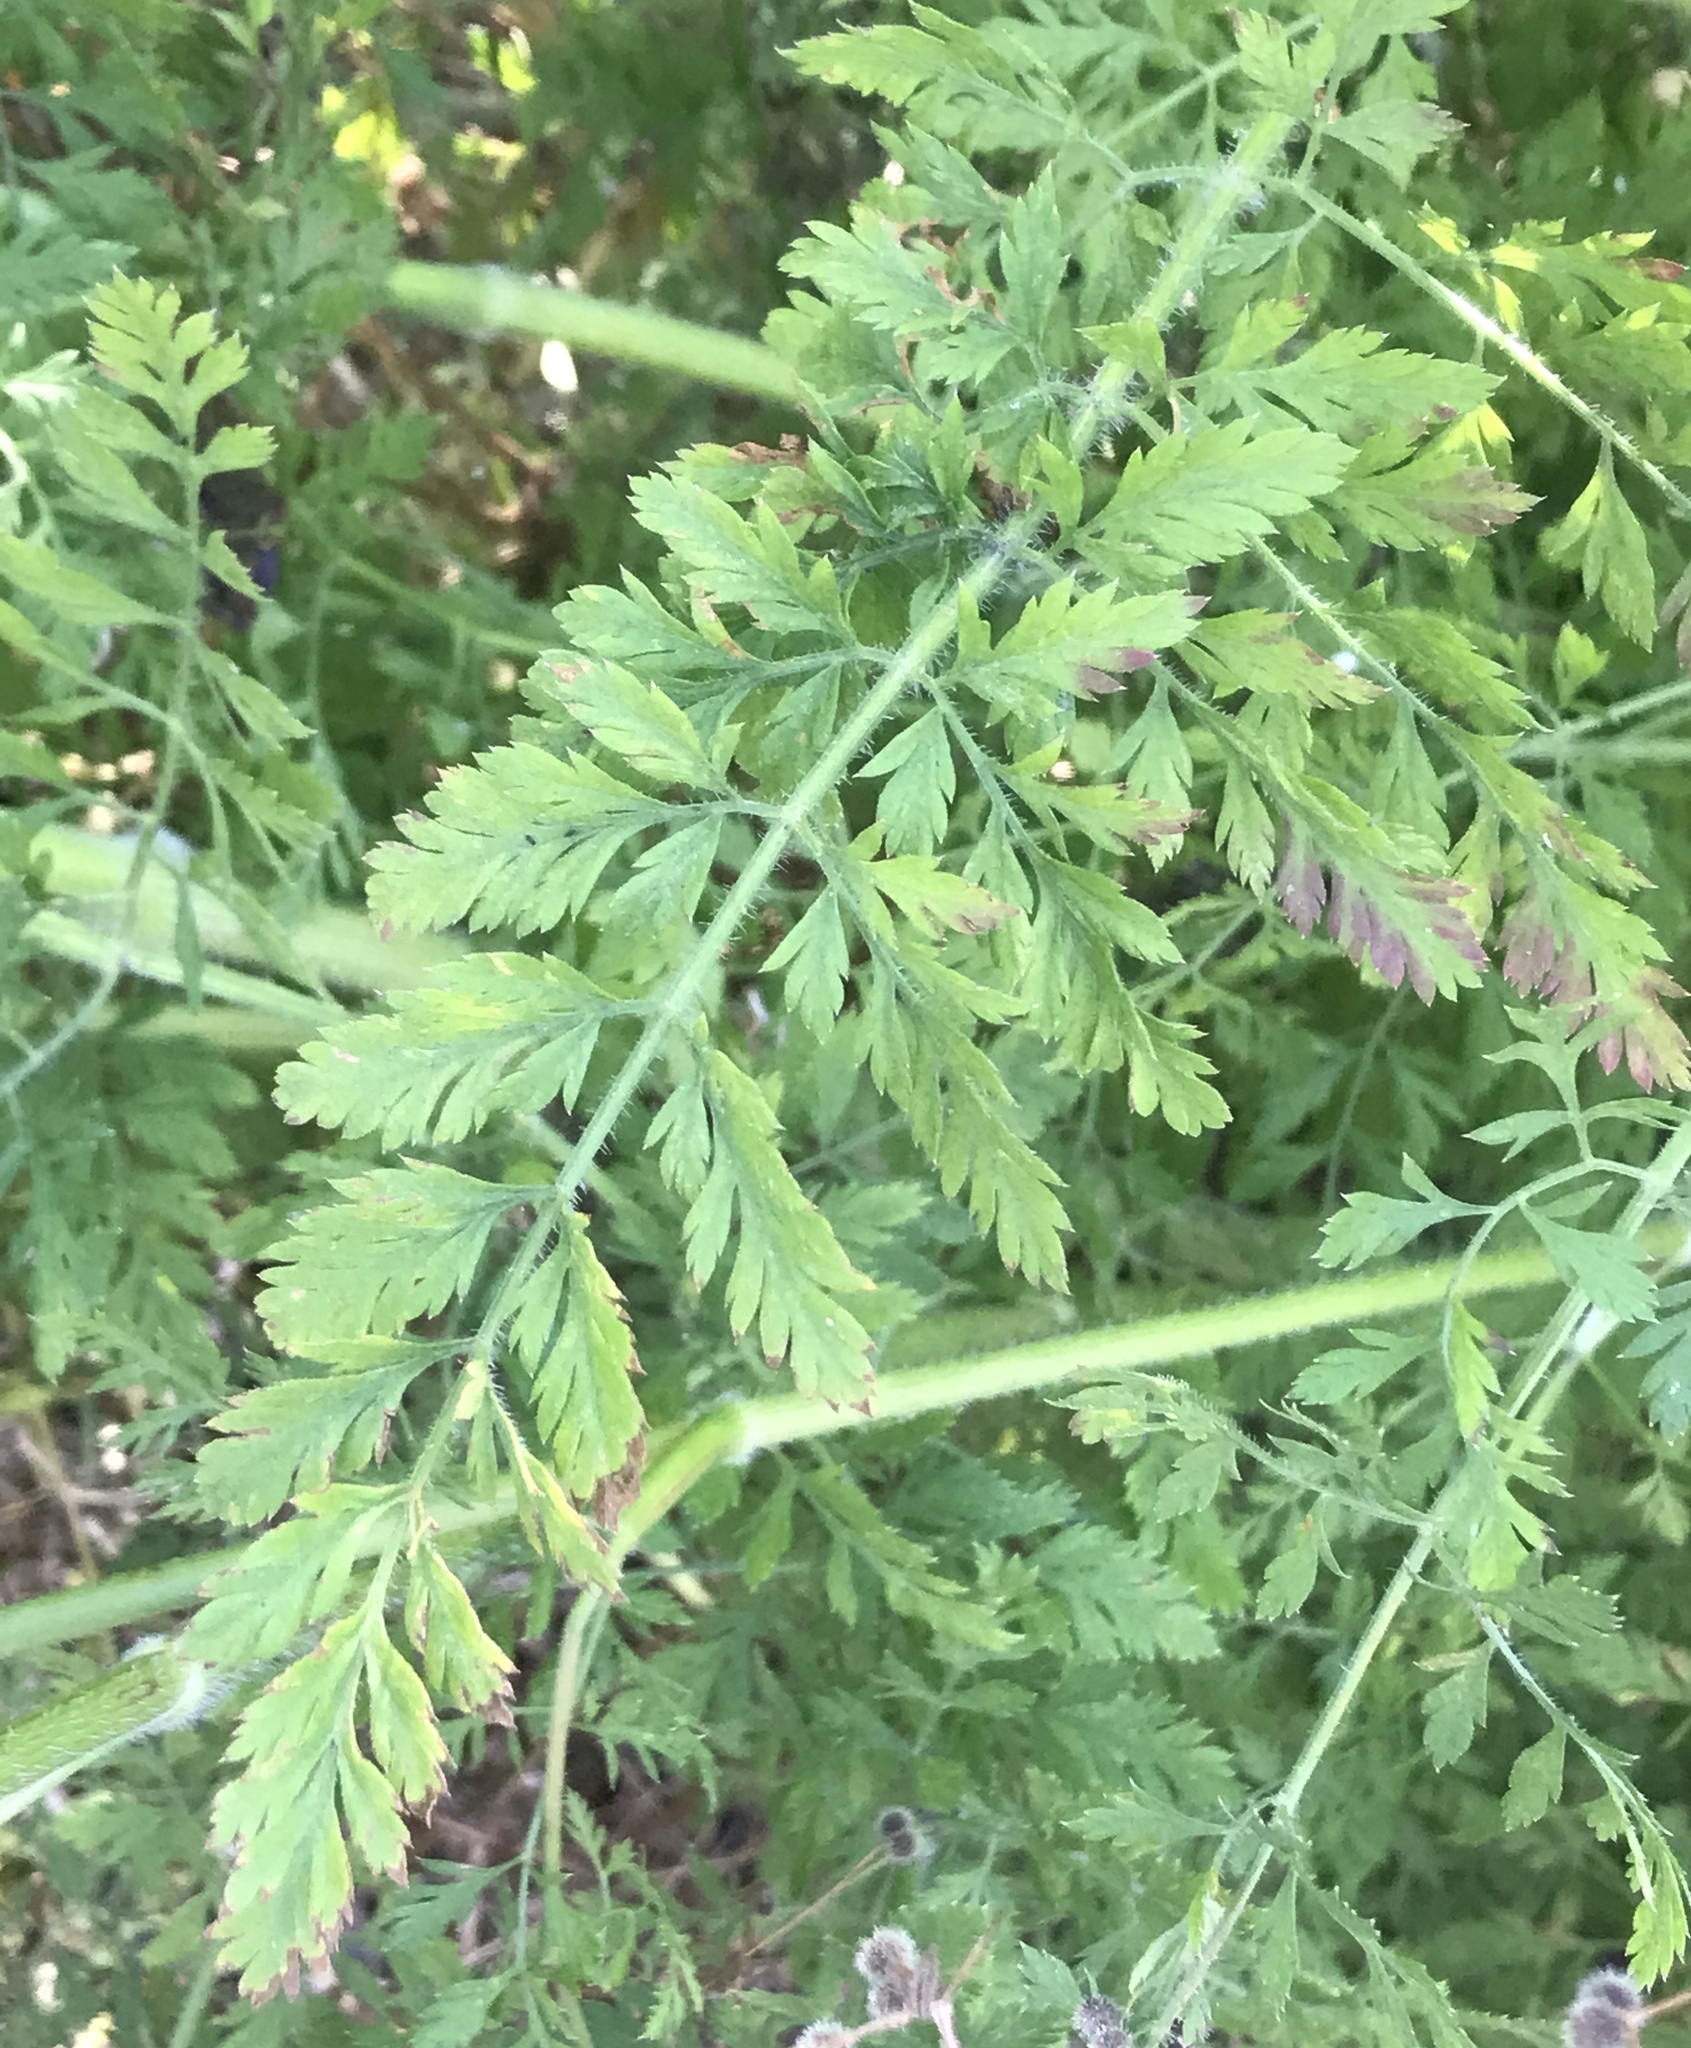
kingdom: Plantae
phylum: Tracheophyta
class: Magnoliopsida
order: Apiales
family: Apiaceae
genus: Daucus
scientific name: Daucus carota
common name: Wild carrot
